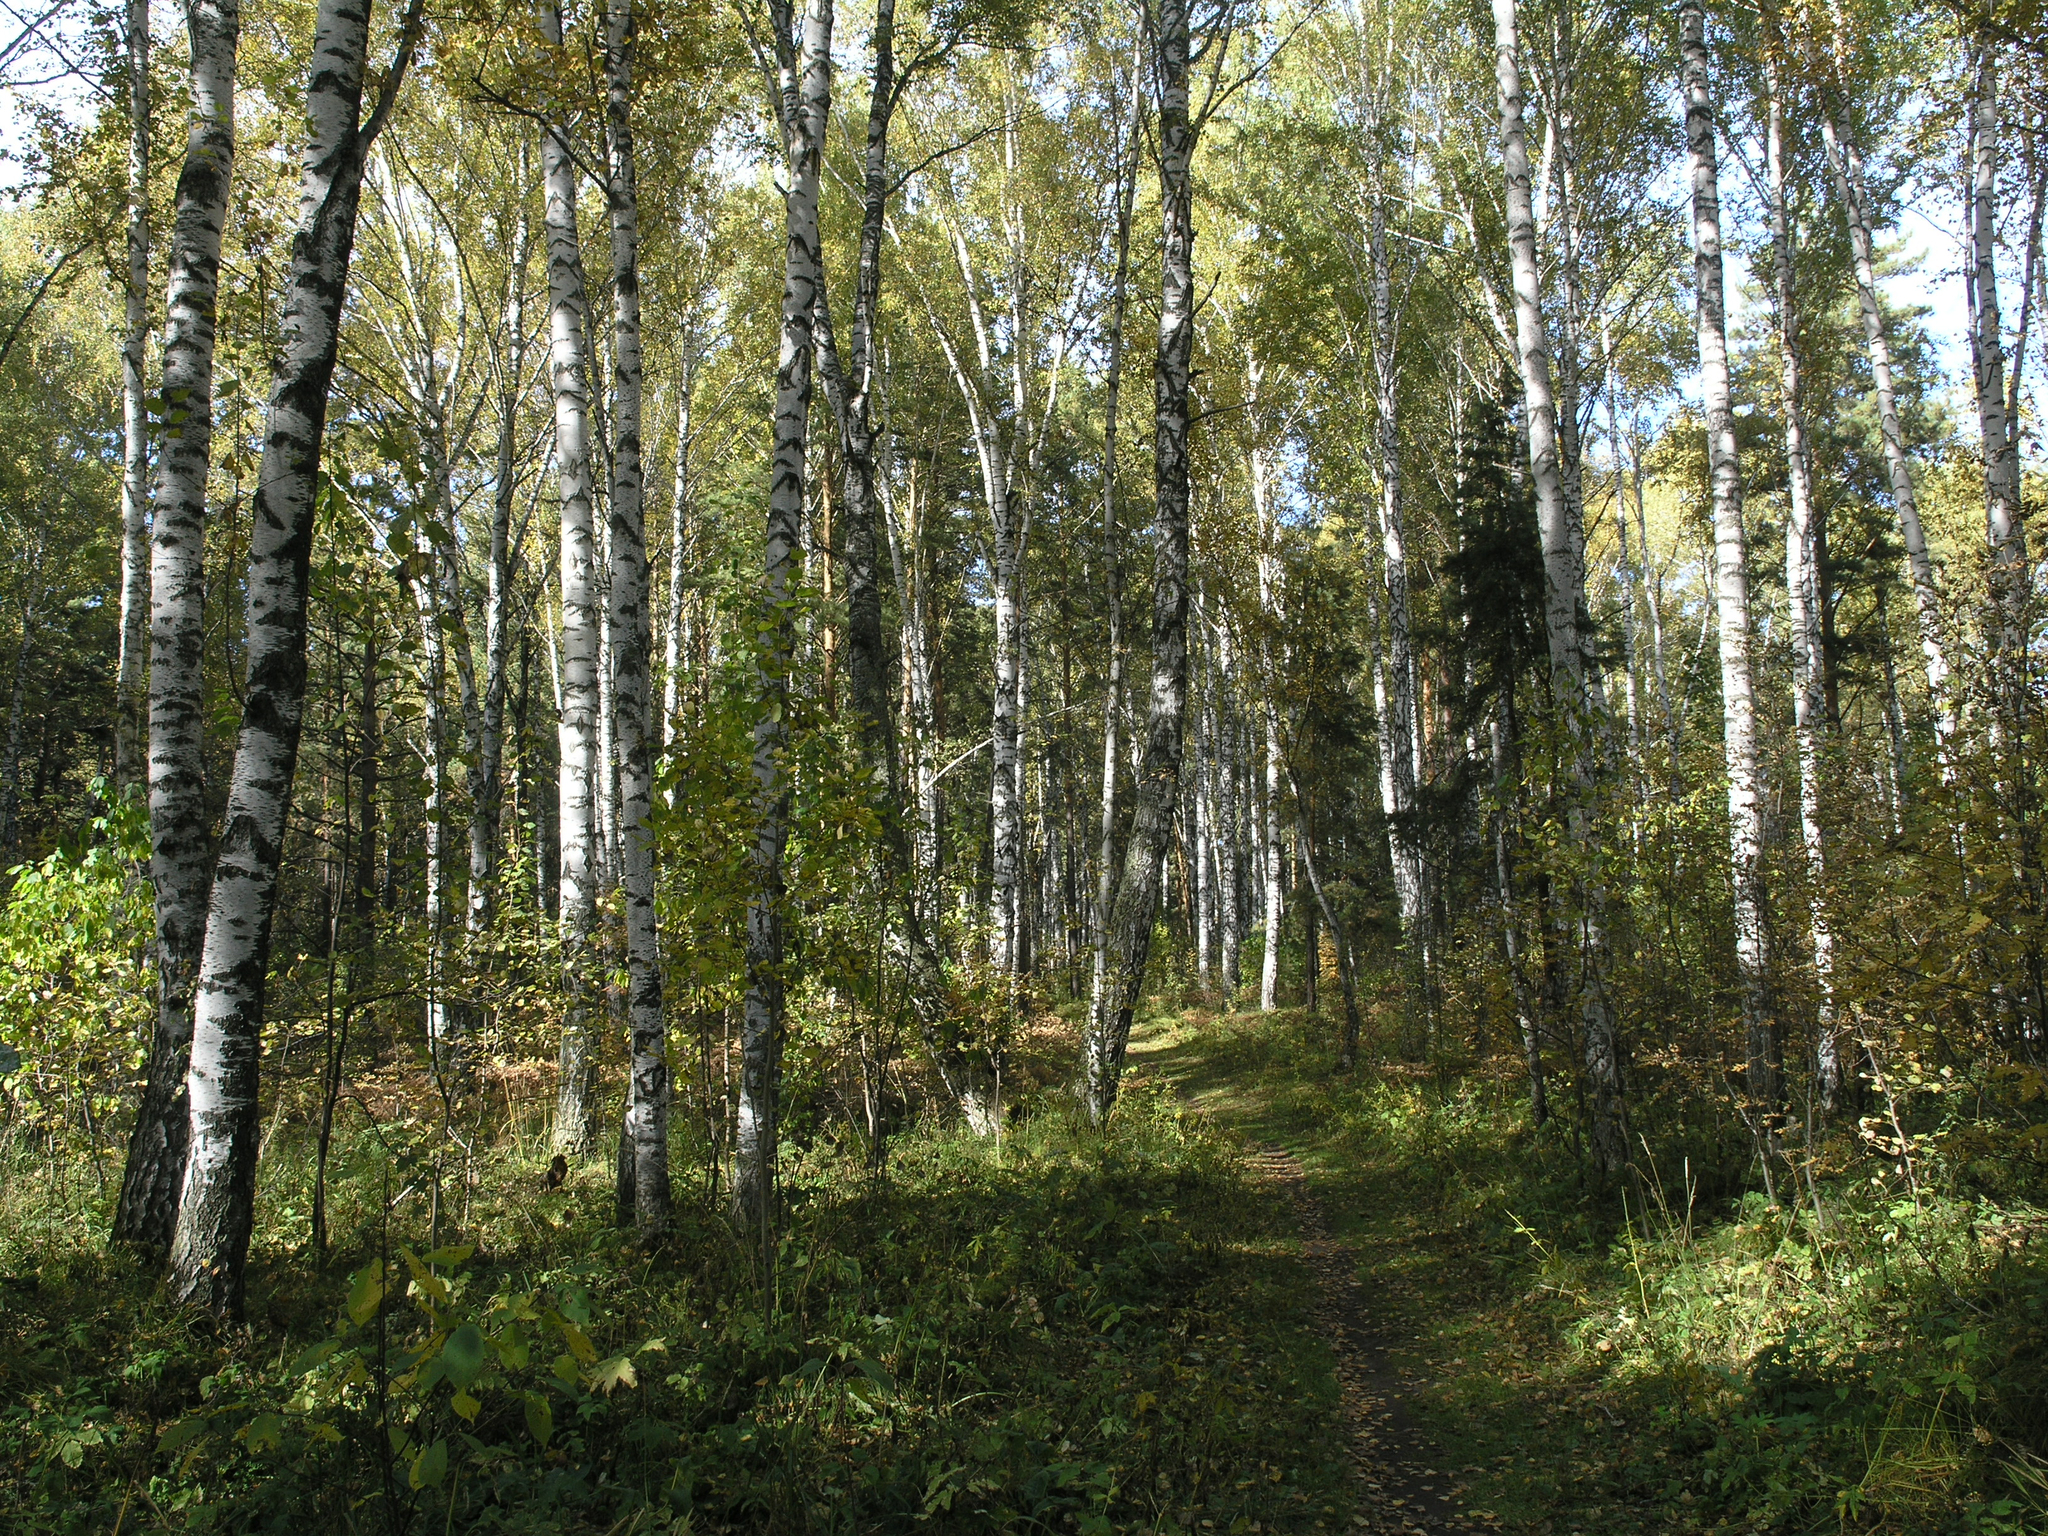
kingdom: Plantae
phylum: Tracheophyta
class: Magnoliopsida
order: Fagales
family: Betulaceae
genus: Betula
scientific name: Betula pendula
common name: Silver birch
